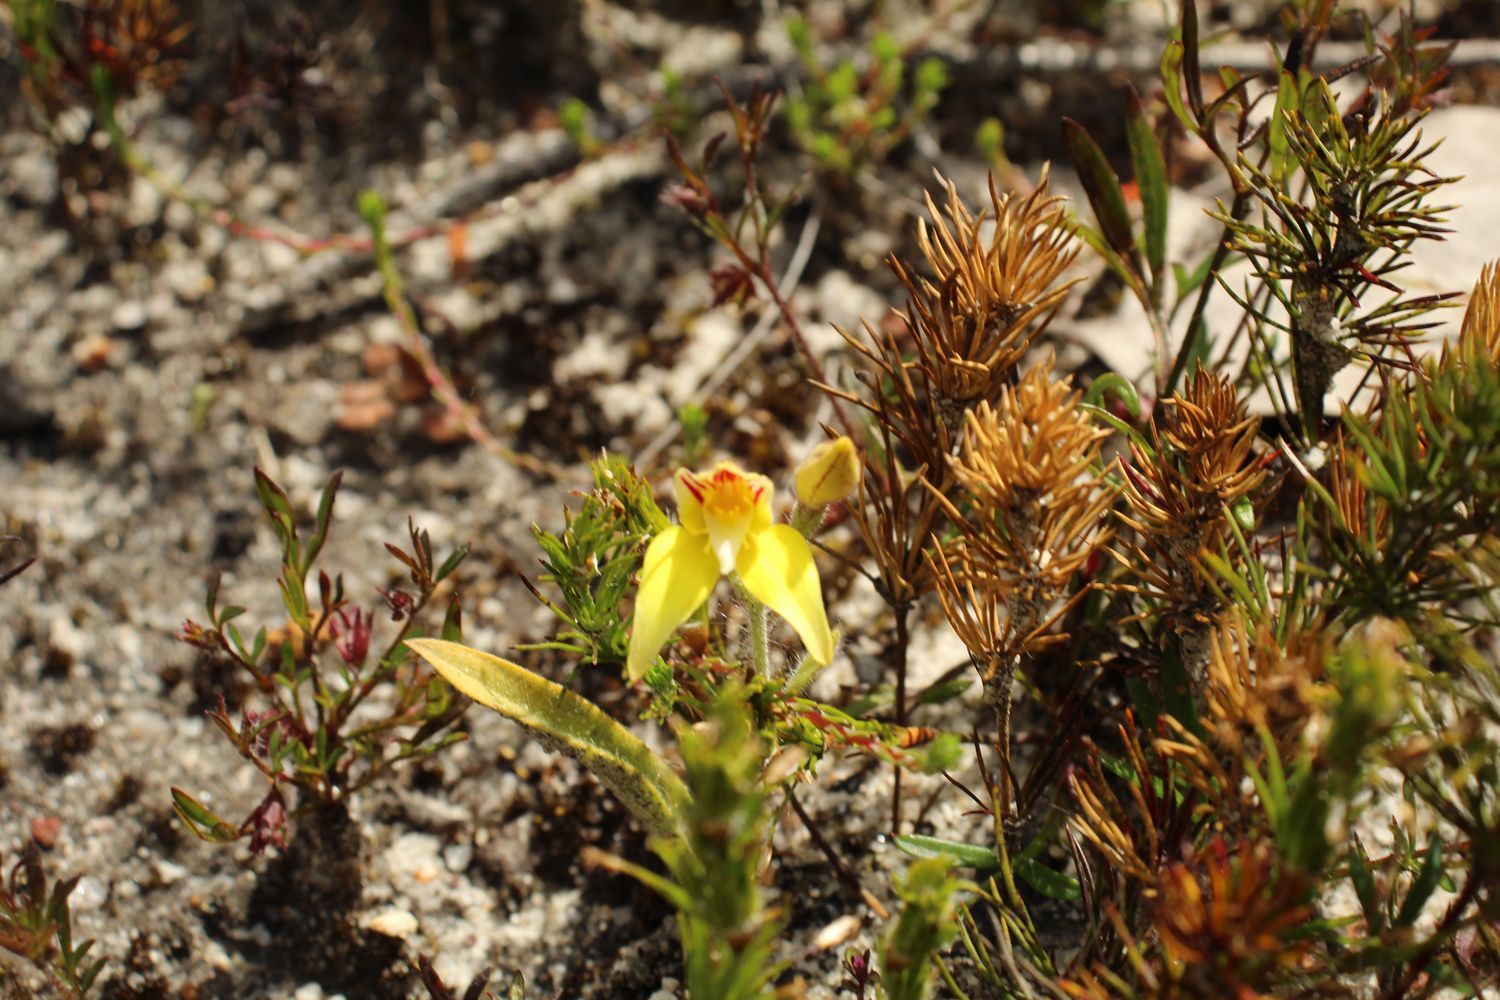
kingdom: Plantae
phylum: Tracheophyta
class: Liliopsida
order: Asparagales
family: Orchidaceae
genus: Caladenia
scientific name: Caladenia flava
